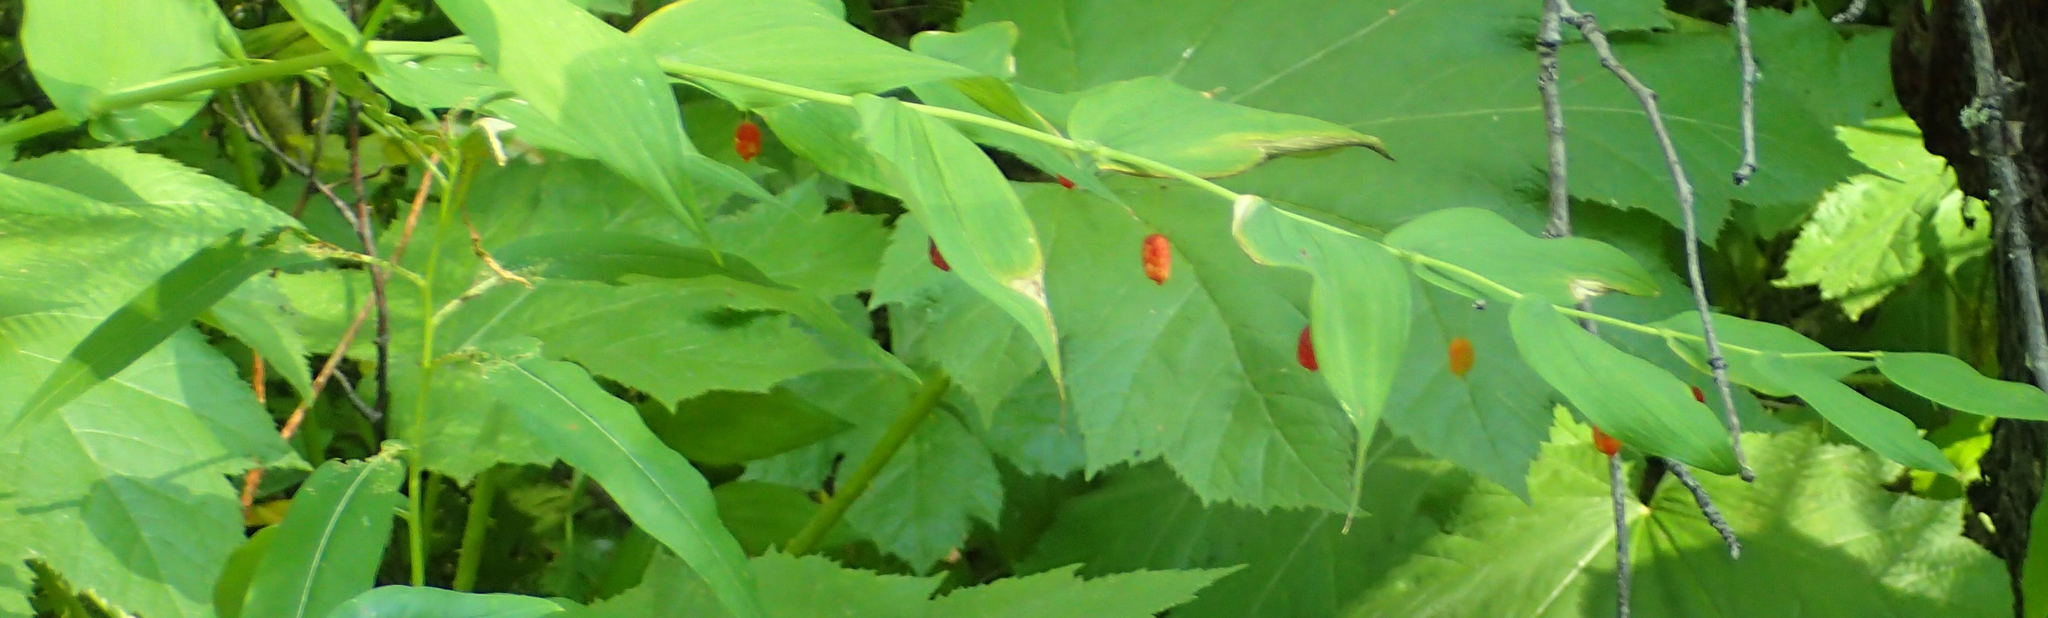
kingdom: Plantae
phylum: Tracheophyta
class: Liliopsida
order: Liliales
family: Liliaceae
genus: Streptopus
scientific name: Streptopus amplexifolius
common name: Clasp twisted stalk
